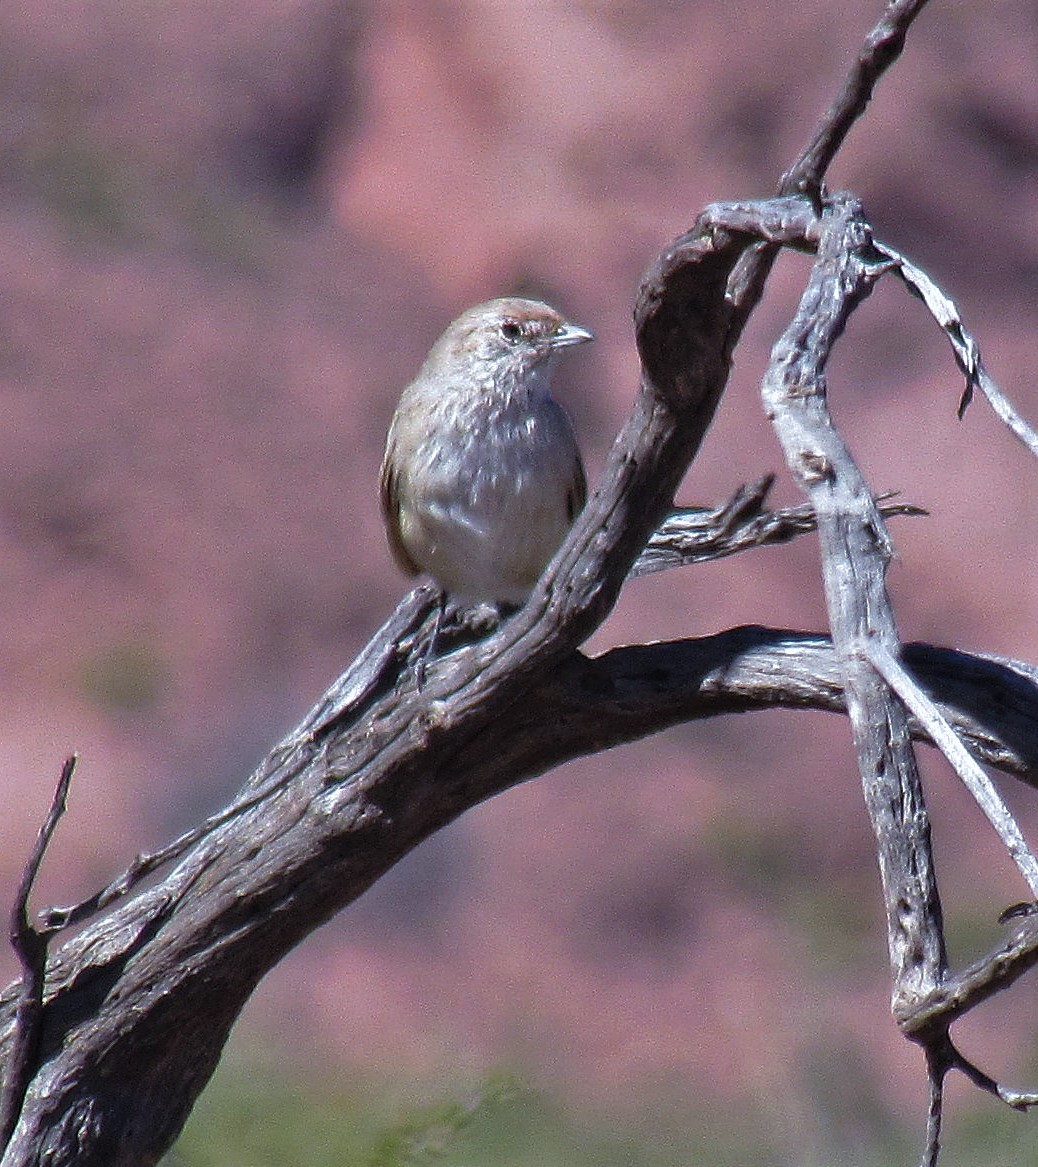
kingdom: Animalia
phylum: Chordata
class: Aves
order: Passeriformes
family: Rhinocryptidae
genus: Teledromas
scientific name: Teledromas fuscus
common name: Sandy gallito
